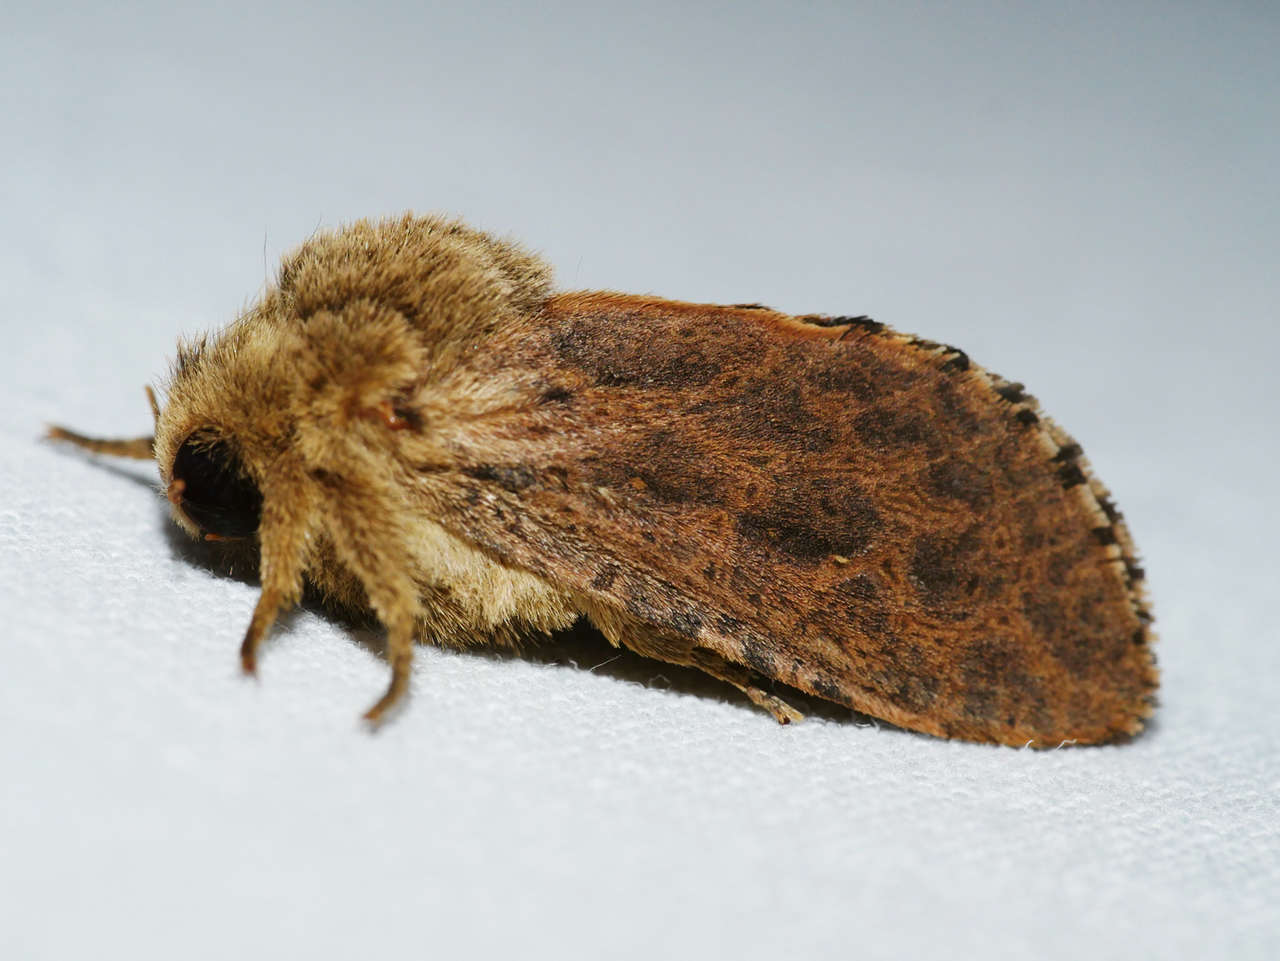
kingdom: Animalia
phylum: Arthropoda
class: Insecta
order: Lepidoptera
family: Hepialidae
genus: Oncopera
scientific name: Oncopera rufobrunnea
